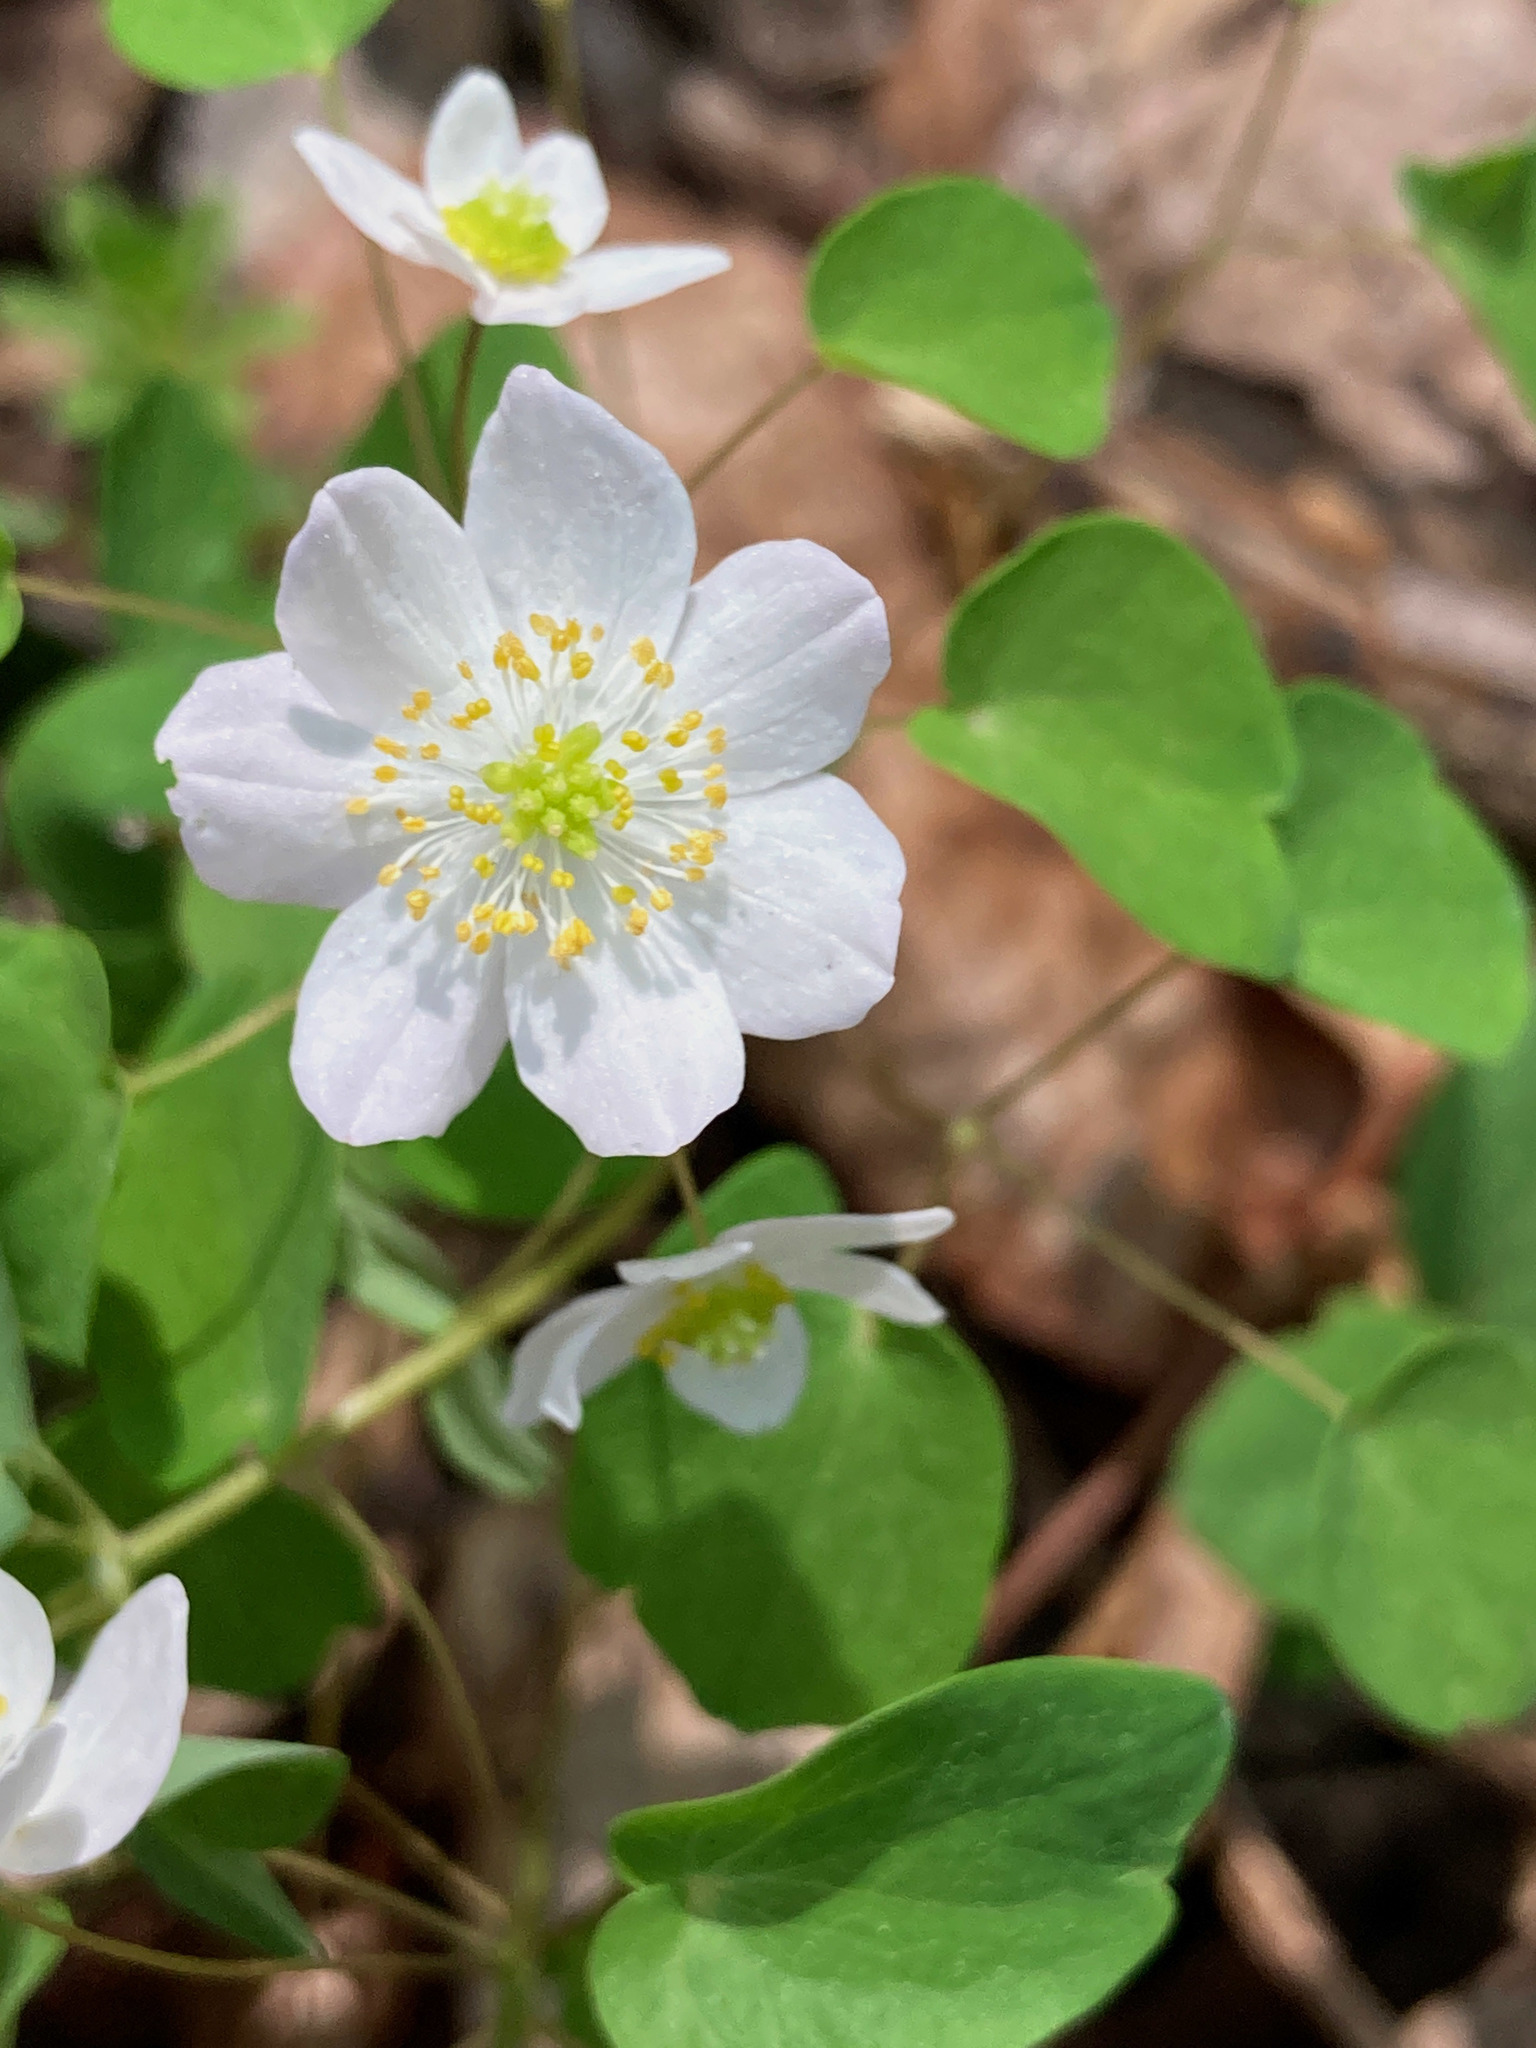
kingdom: Plantae
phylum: Tracheophyta
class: Magnoliopsida
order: Ranunculales
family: Ranunculaceae
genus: Thalictrum
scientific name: Thalictrum thalictroides
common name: Rue-anemone
